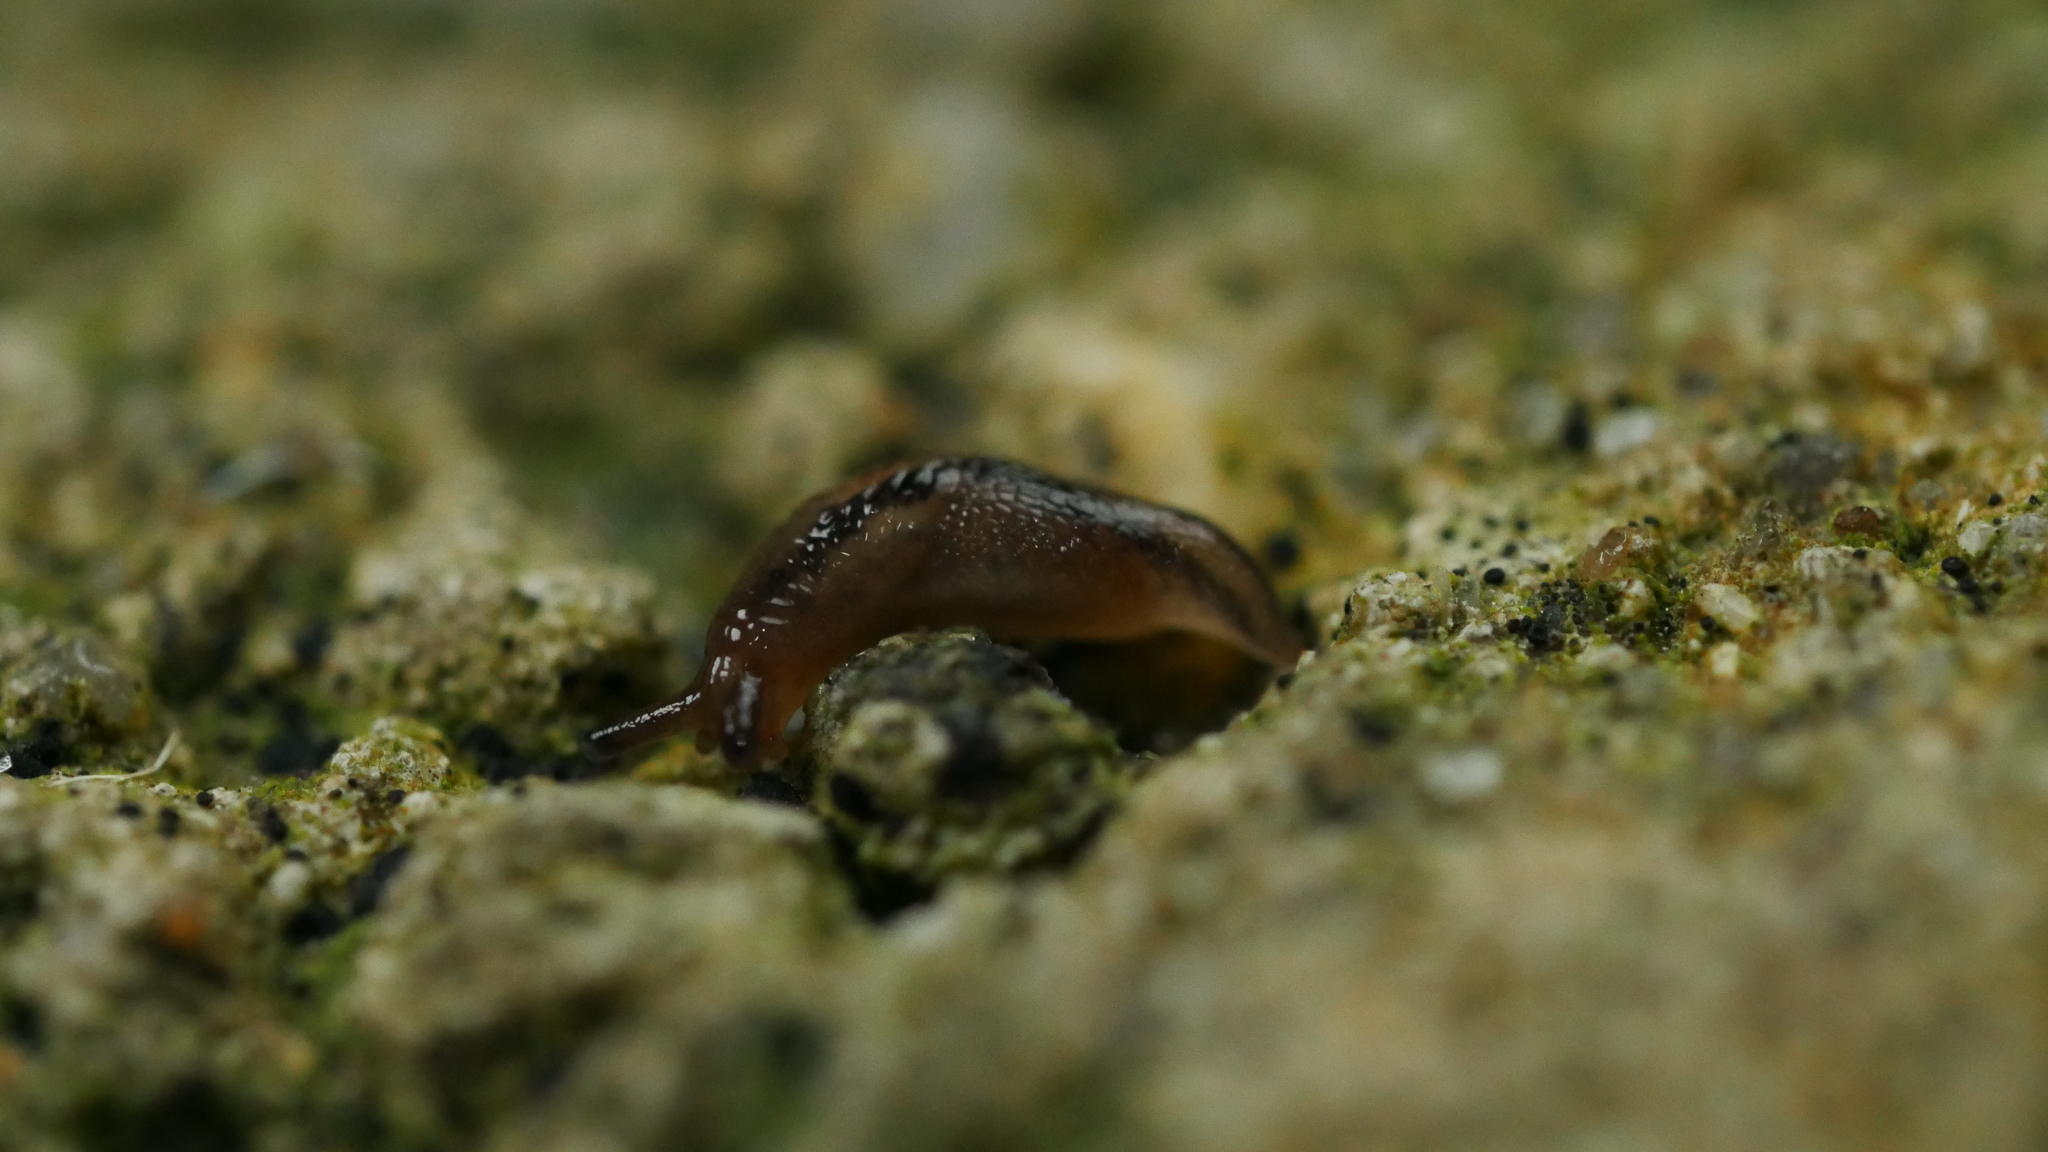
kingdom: Animalia
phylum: Mollusca
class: Gastropoda
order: Stylommatophora
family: Limacidae
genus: Ambigolimax
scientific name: Ambigolimax
